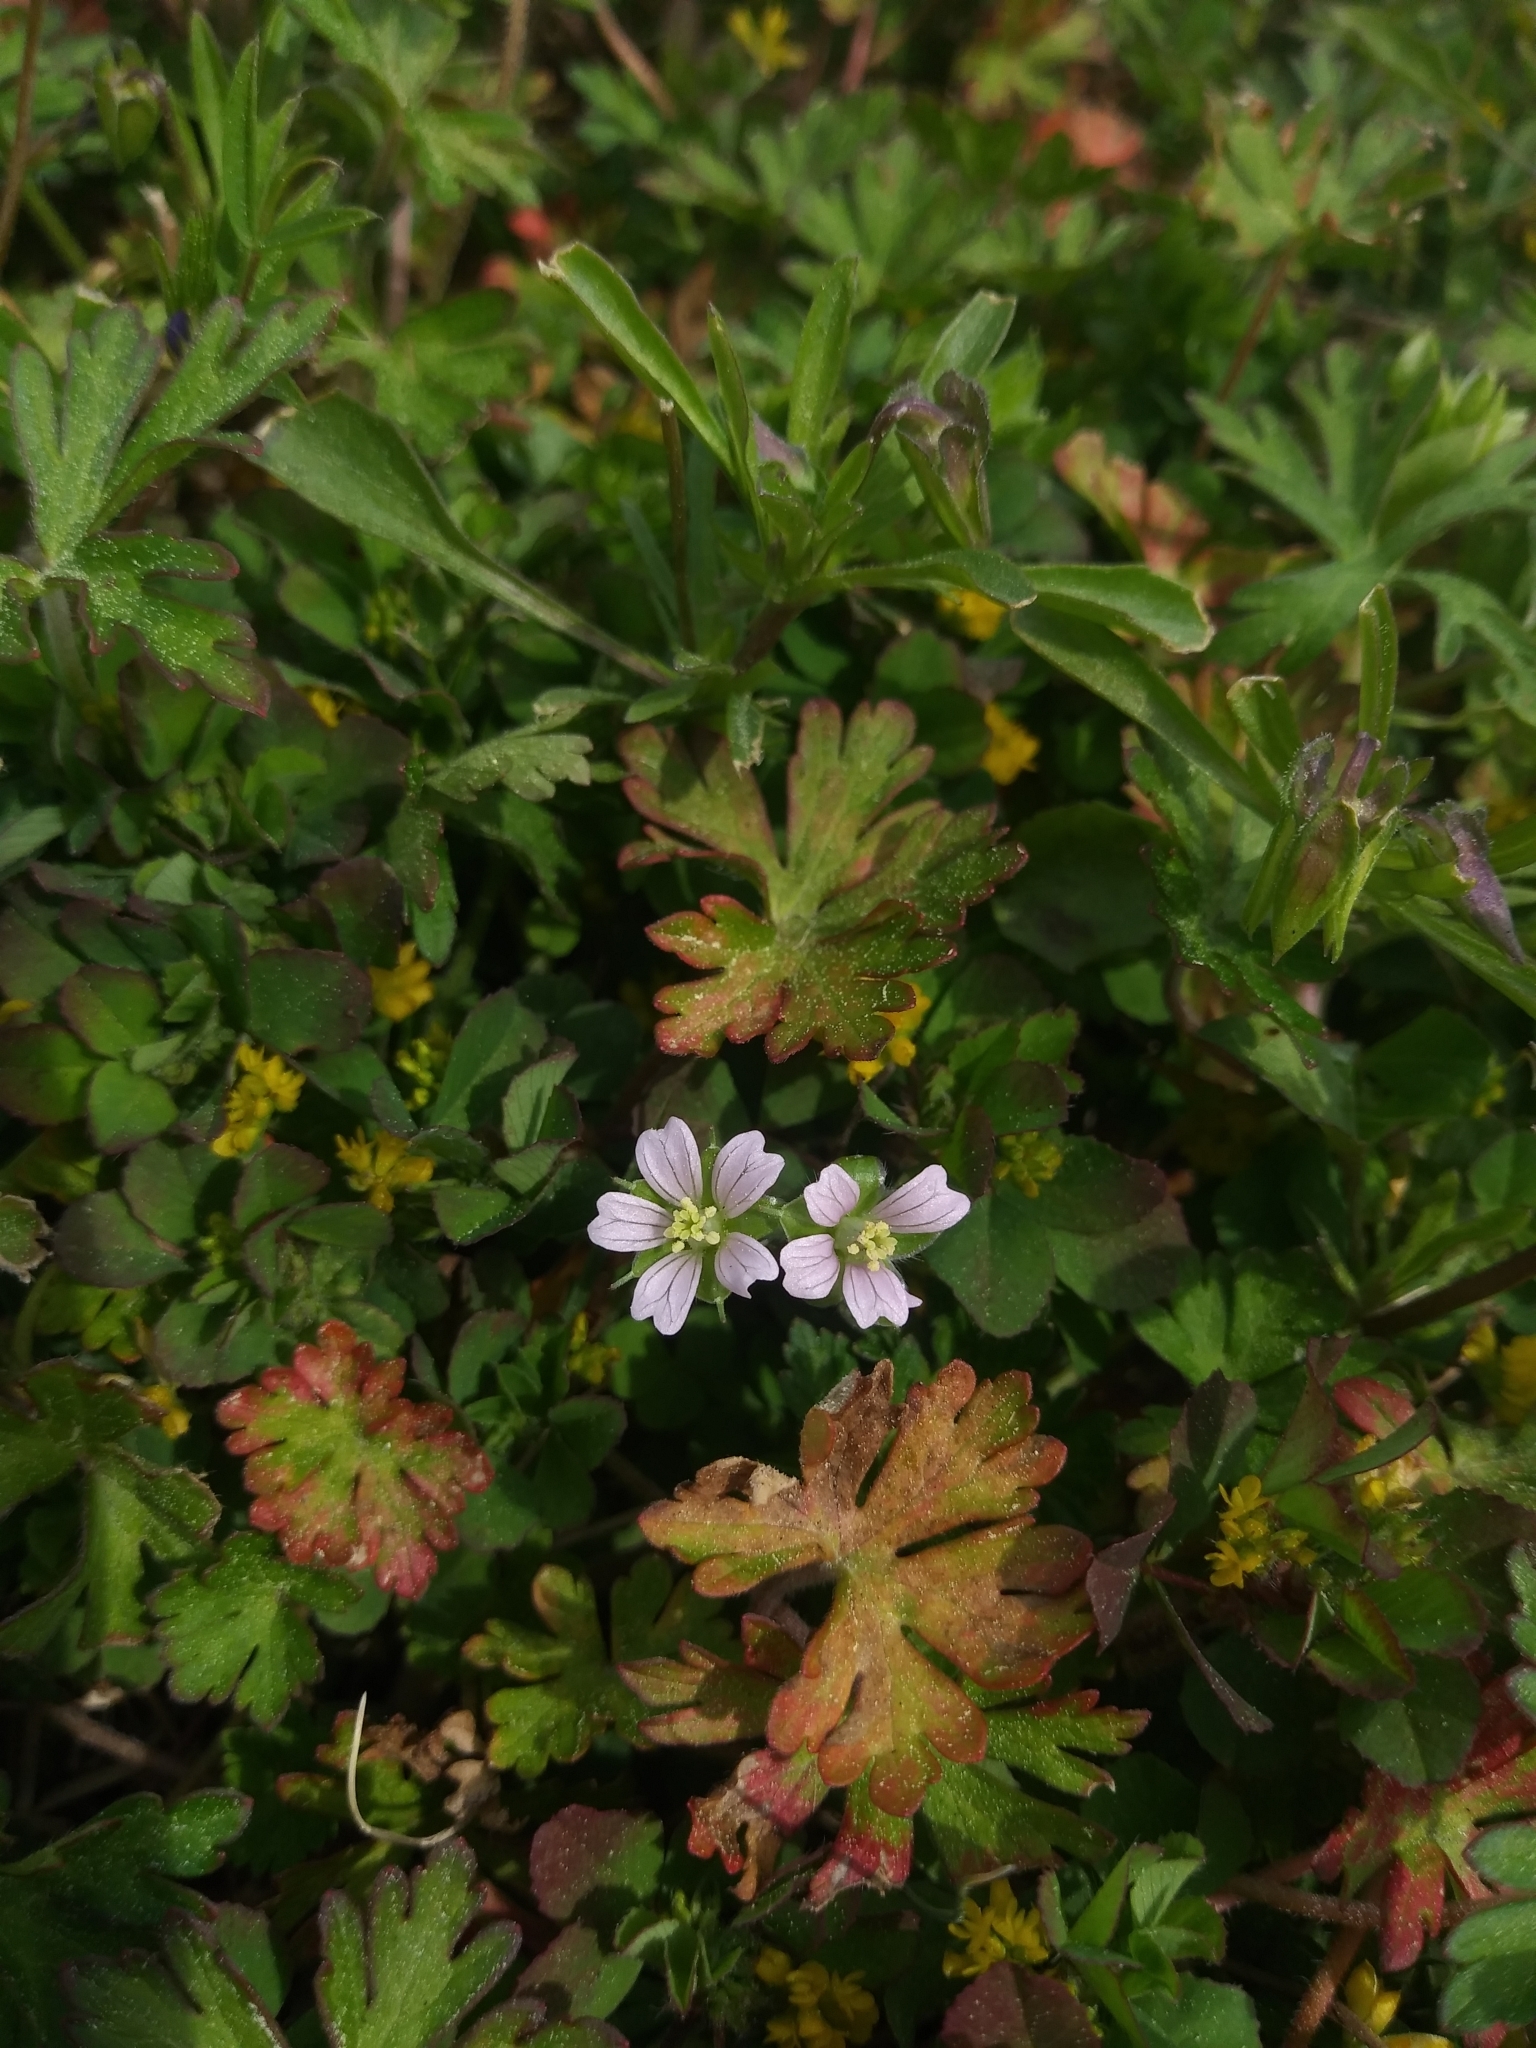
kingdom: Plantae
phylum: Tracheophyta
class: Magnoliopsida
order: Geraniales
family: Geraniaceae
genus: Geranium
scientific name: Geranium carolinianum
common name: Carolina crane's-bill
